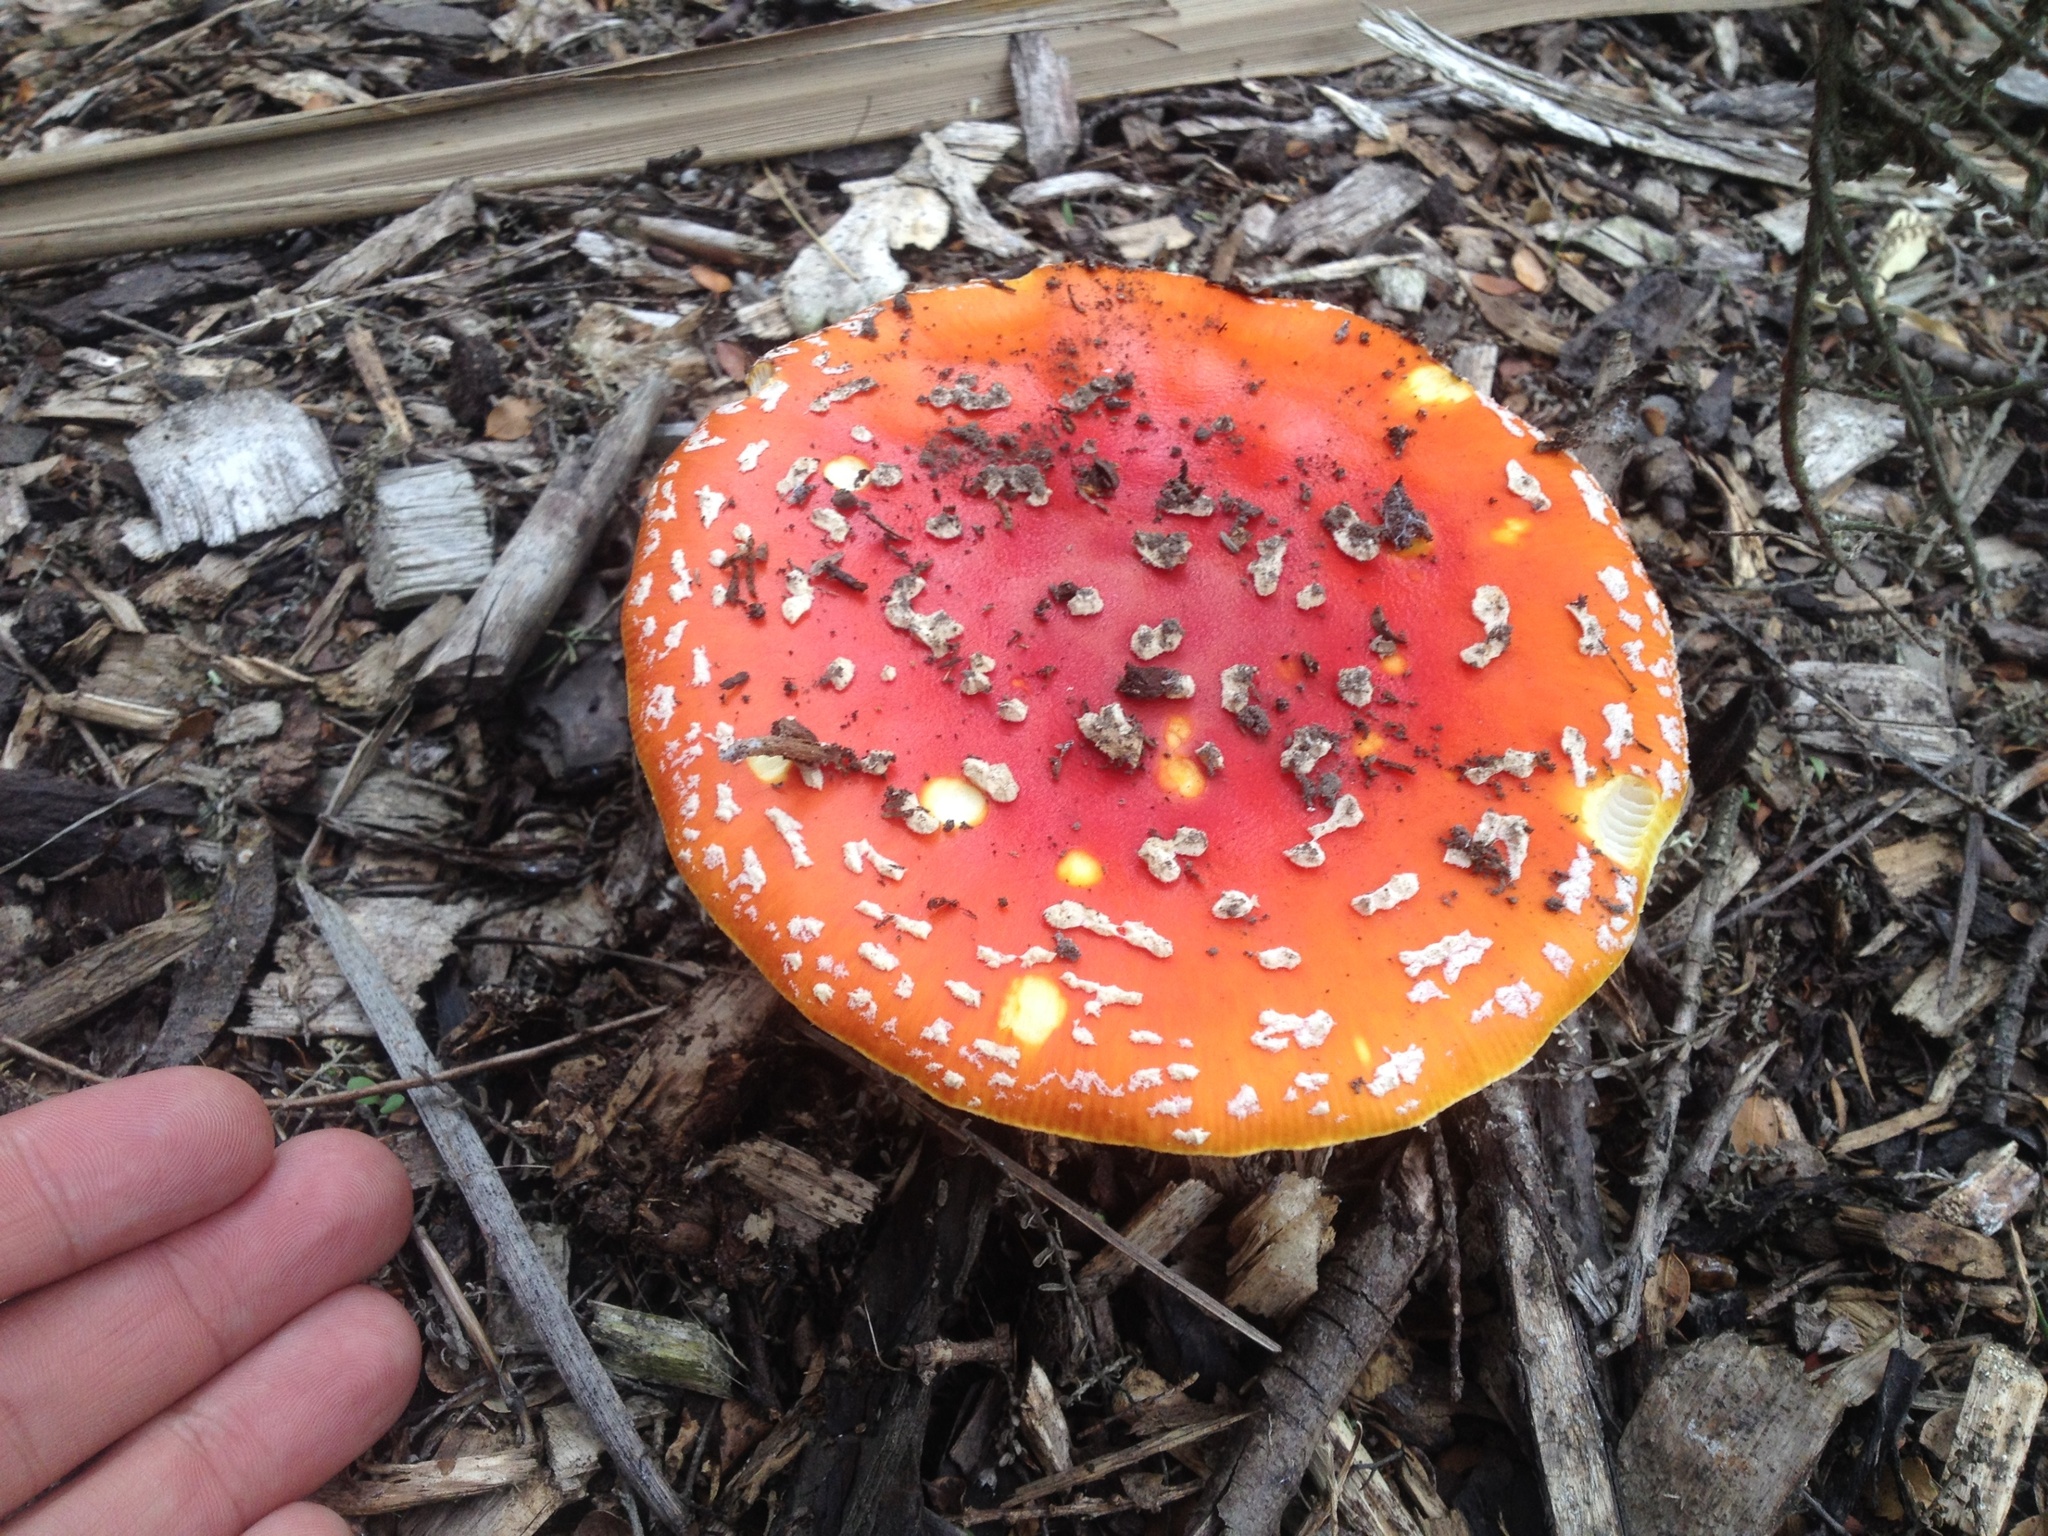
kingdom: Fungi
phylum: Basidiomycota
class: Agaricomycetes
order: Agaricales
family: Amanitaceae
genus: Amanita
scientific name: Amanita muscaria
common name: Fly agaric
